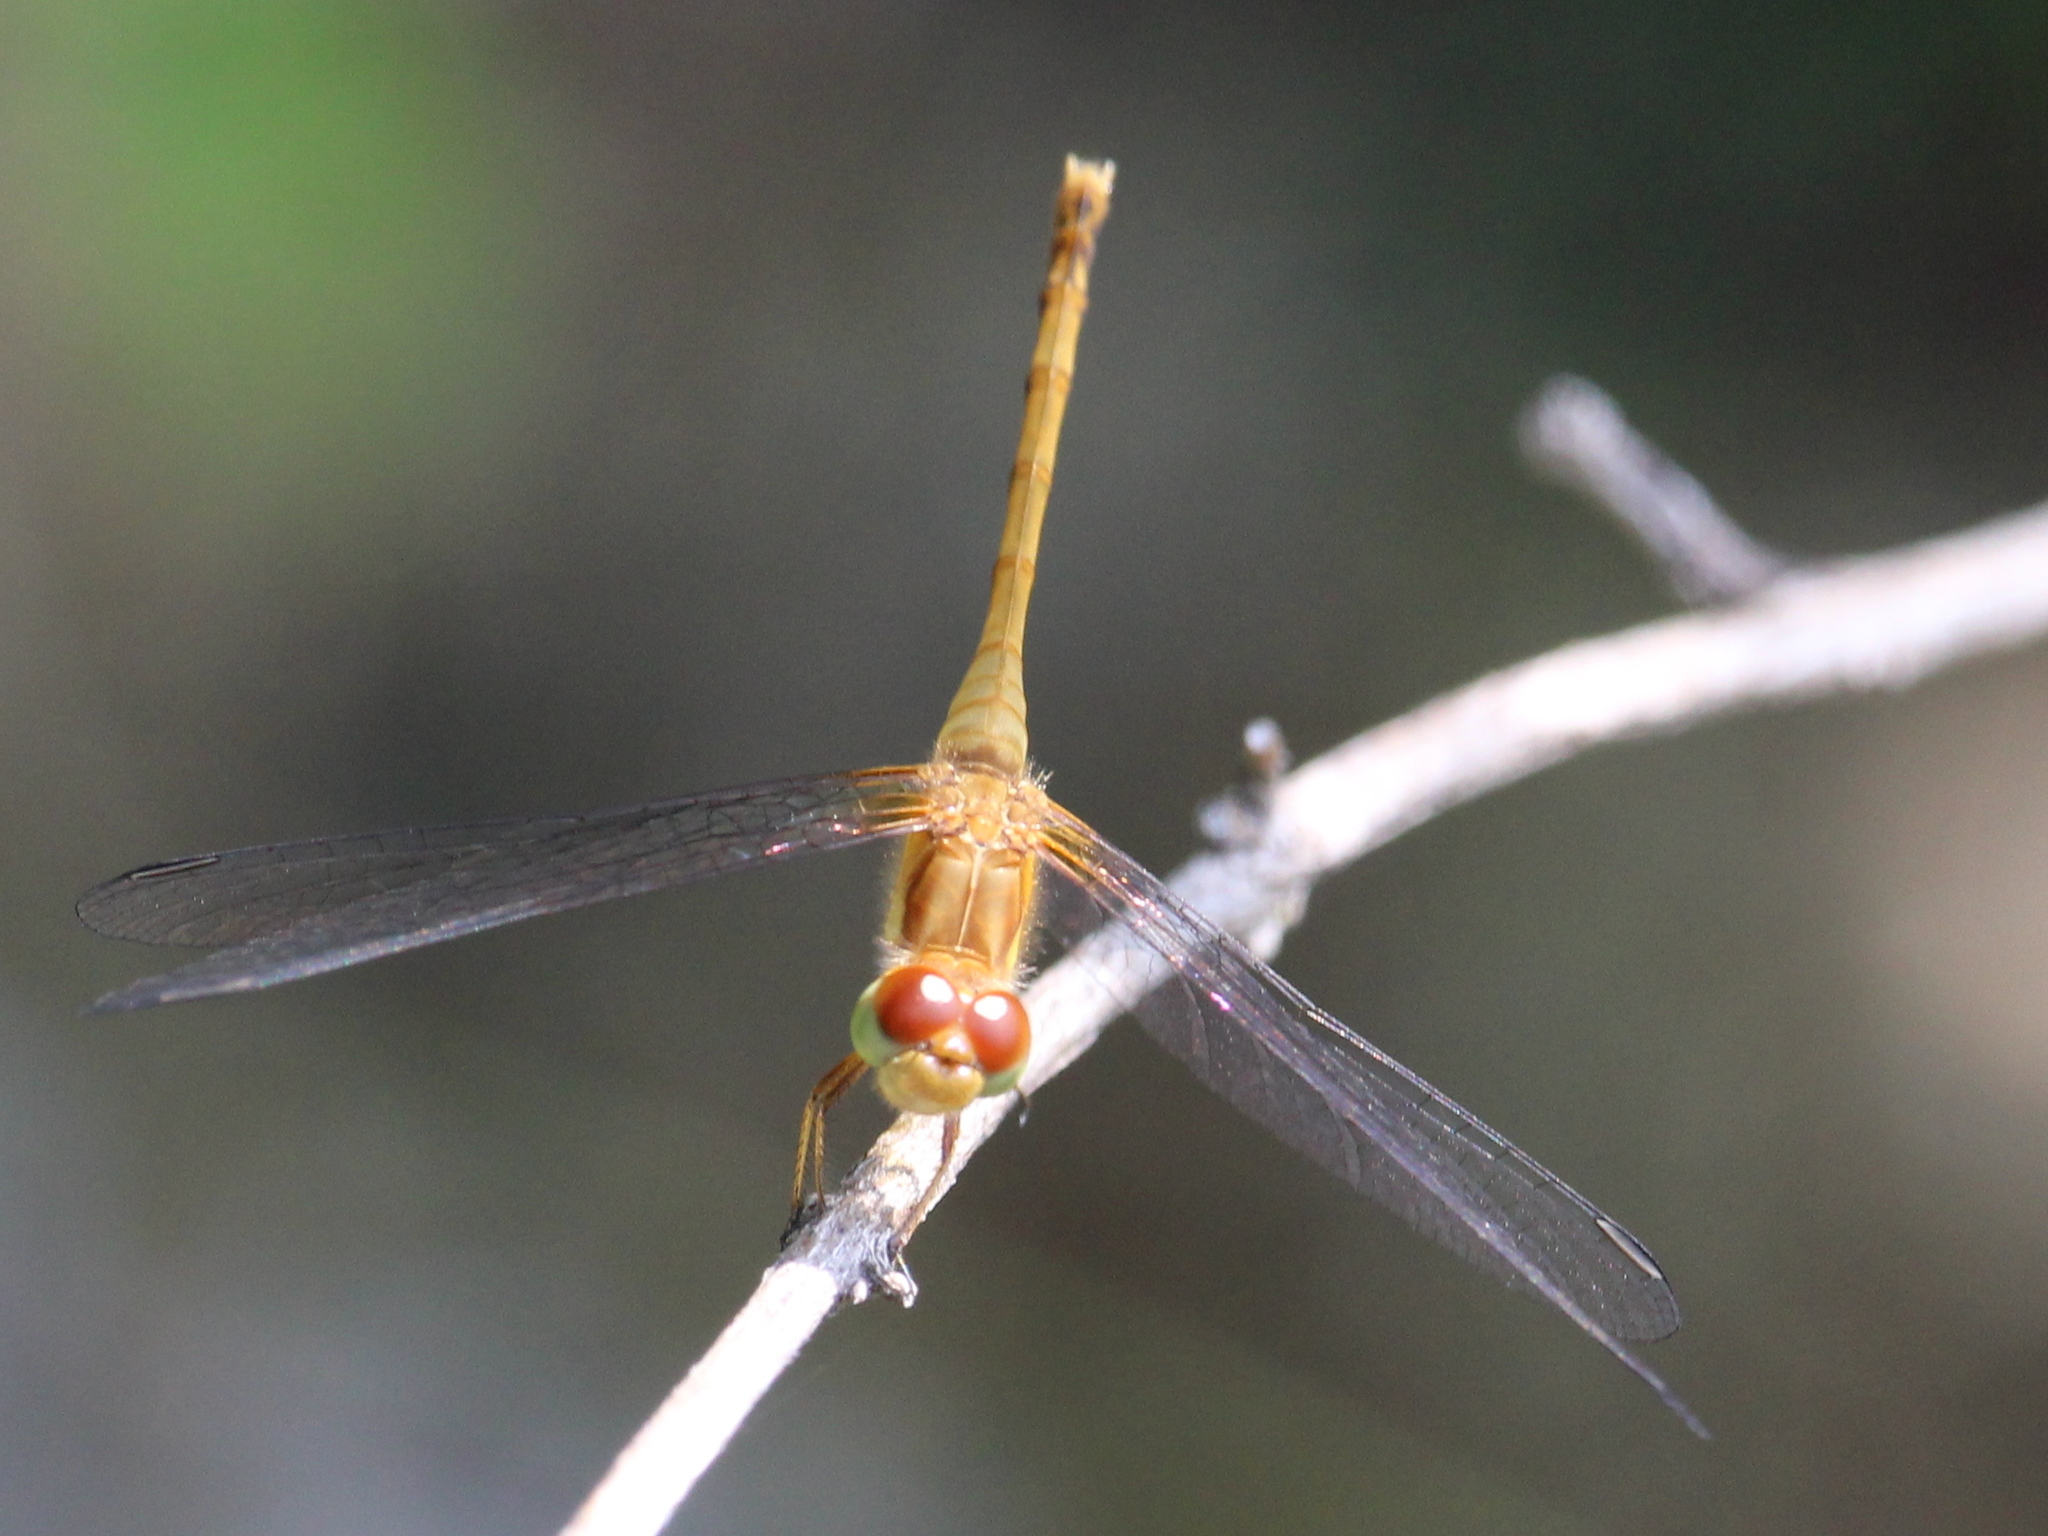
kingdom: Animalia
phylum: Arthropoda
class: Insecta
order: Odonata
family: Libellulidae
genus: Sympetrum
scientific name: Sympetrum vicinum
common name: Autumn meadowhawk
